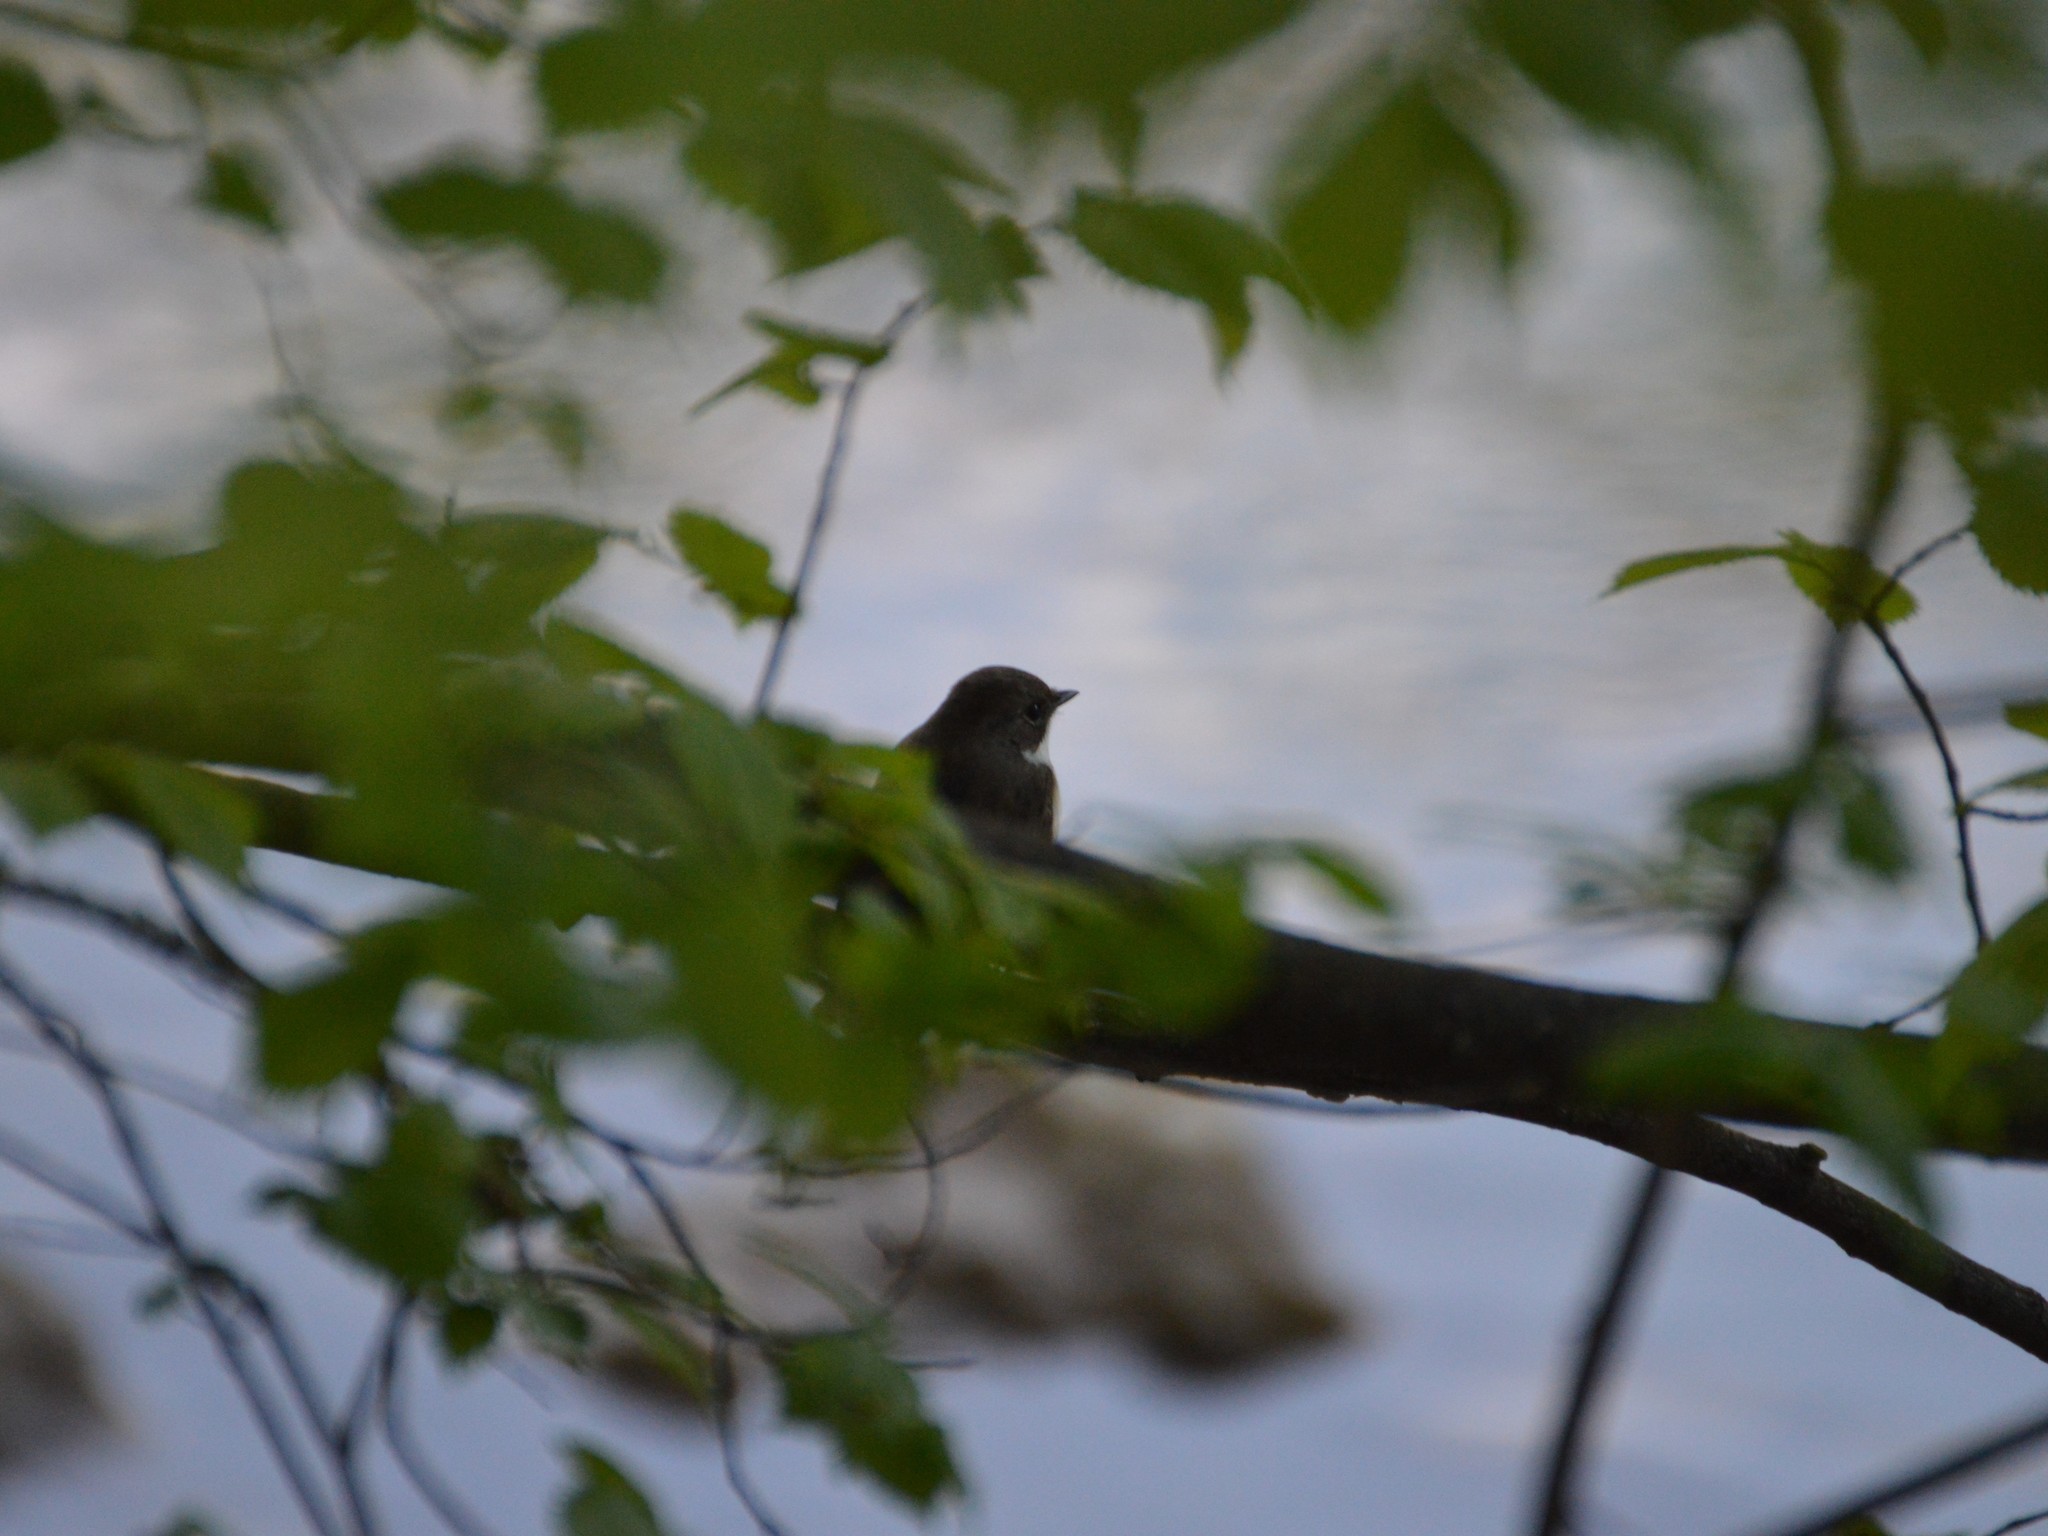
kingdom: Animalia
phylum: Chordata
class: Aves
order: Passeriformes
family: Muscicapidae
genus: Ficedula
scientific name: Ficedula hypoleuca
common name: European pied flycatcher
